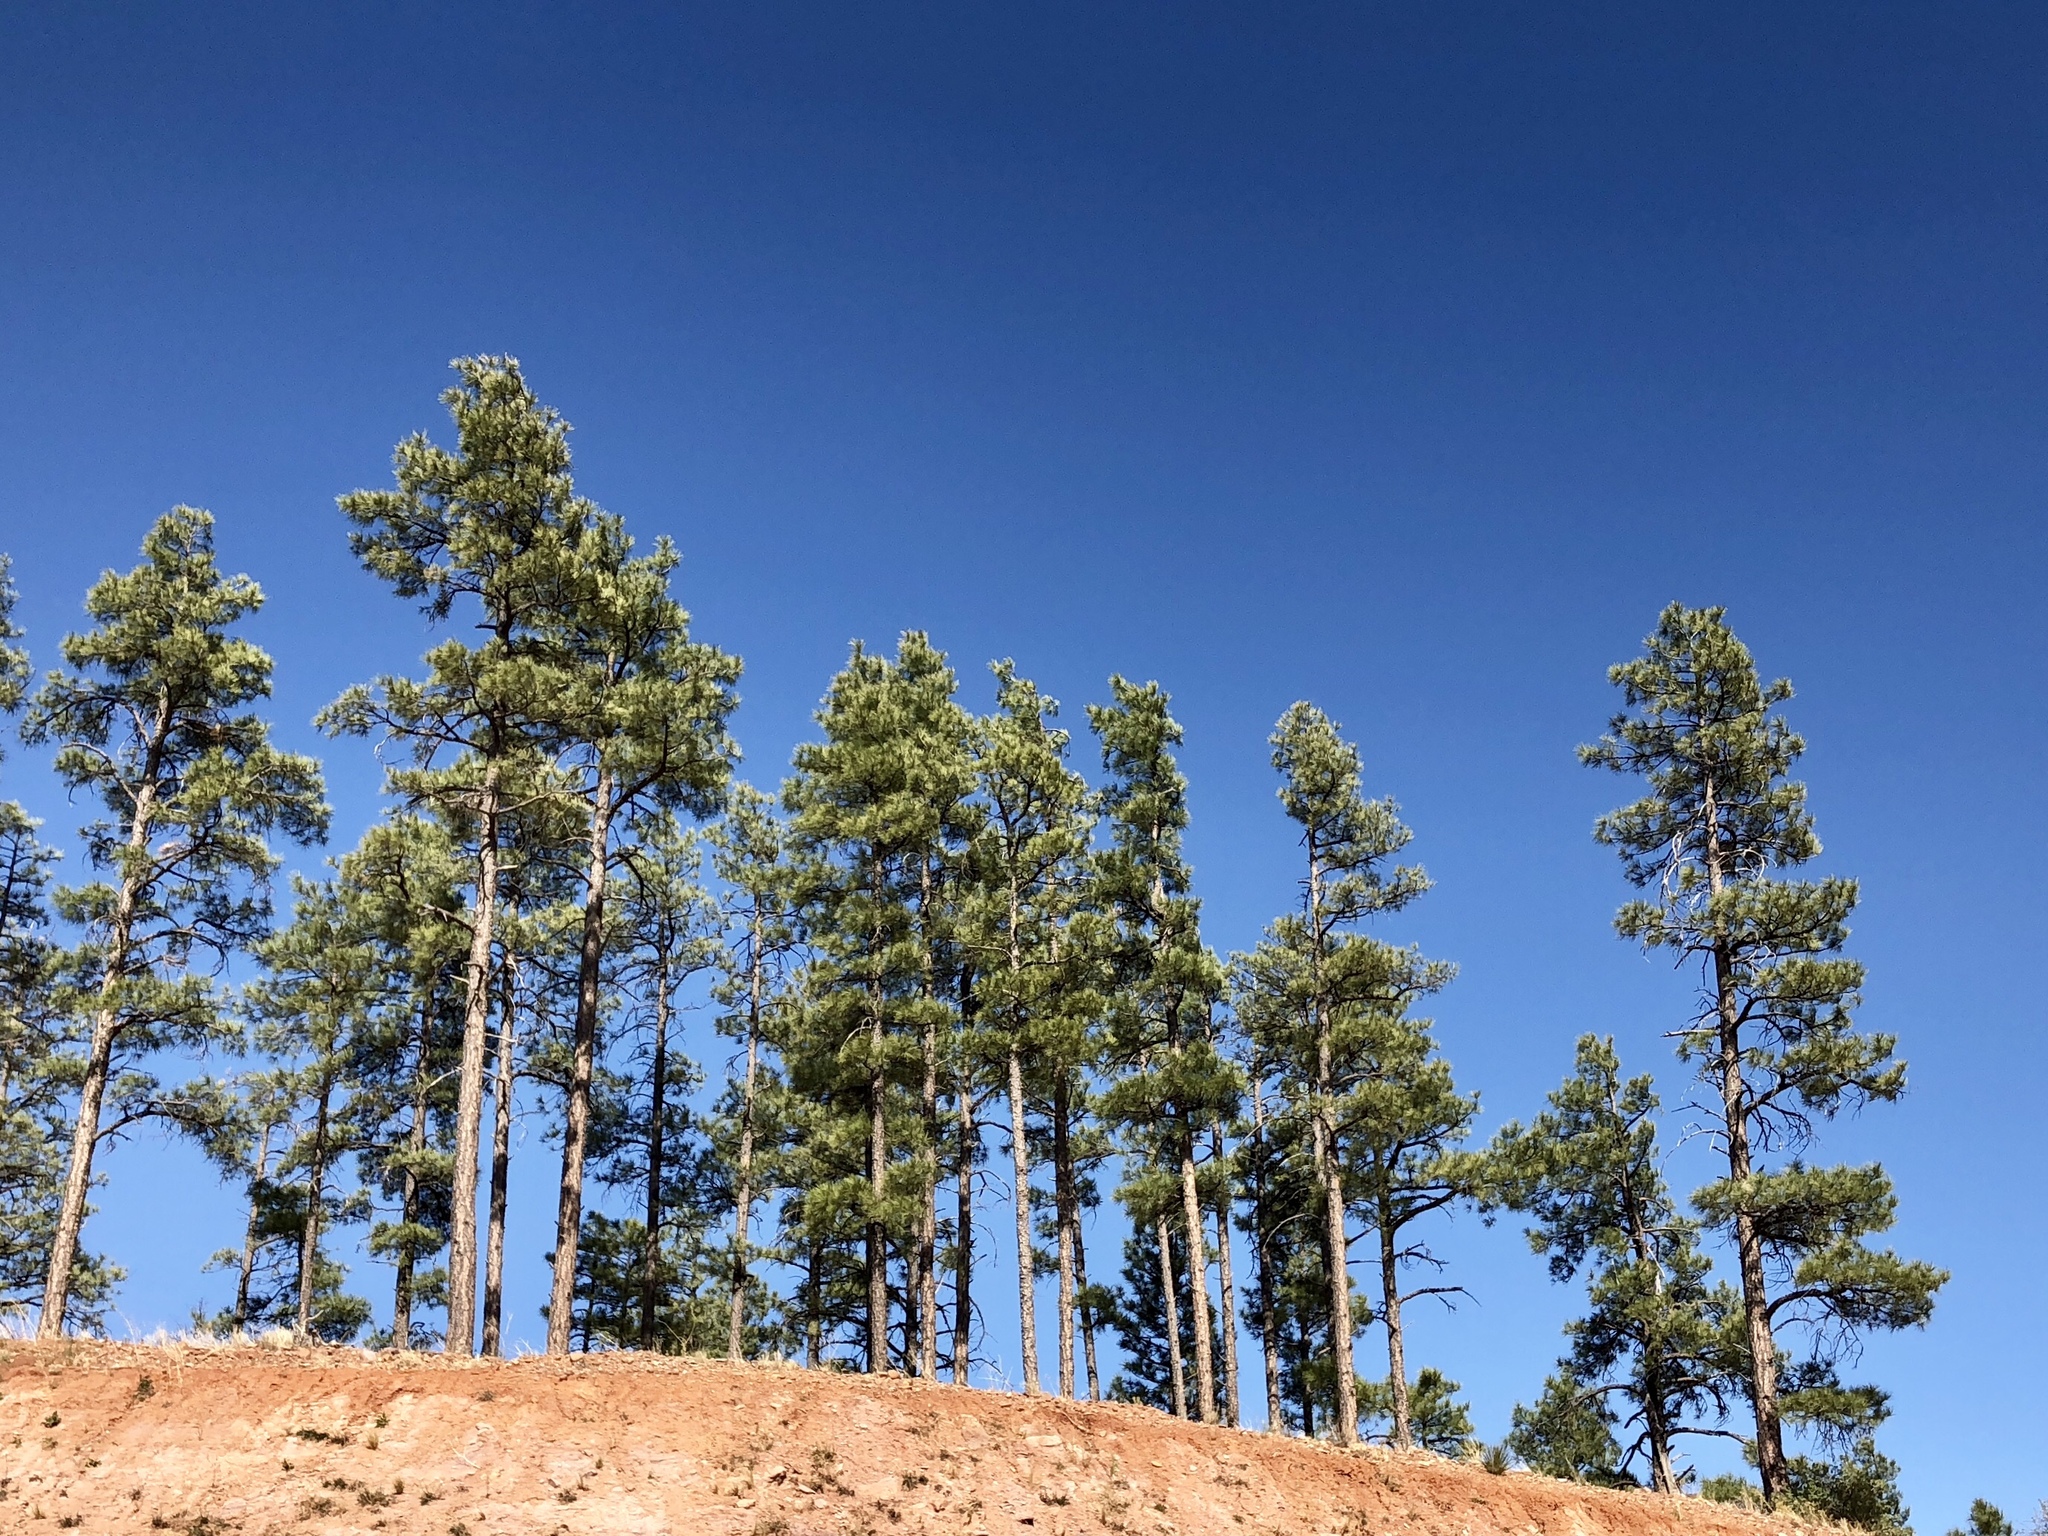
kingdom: Plantae
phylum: Tracheophyta
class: Pinopsida
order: Pinales
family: Pinaceae
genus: Pinus
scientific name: Pinus ponderosa
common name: Western yellow-pine
